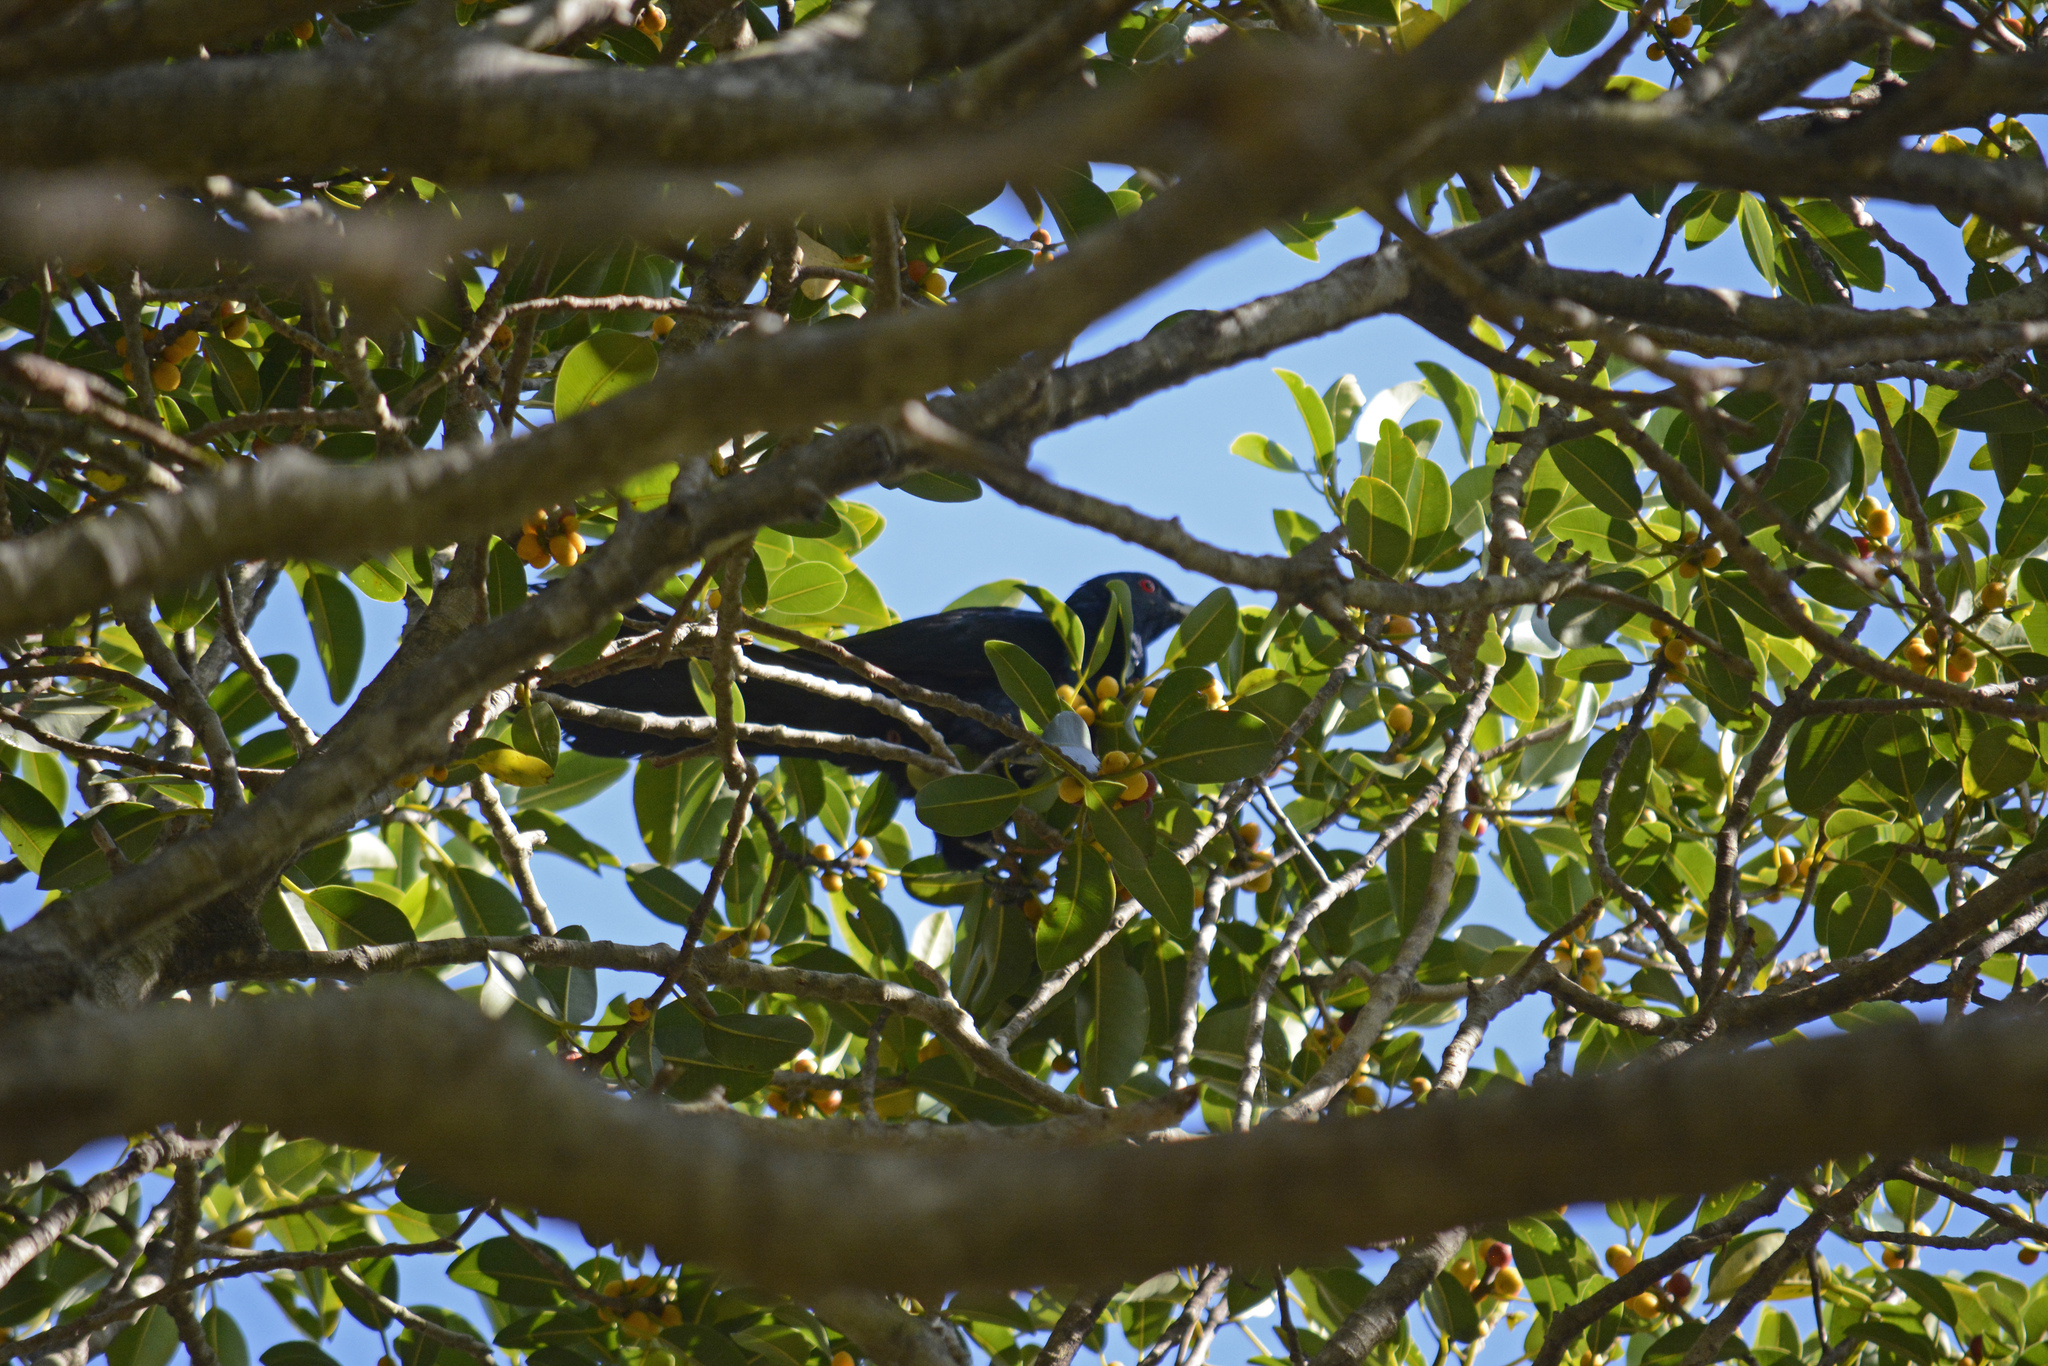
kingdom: Animalia
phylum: Chordata
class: Aves
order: Cuculiformes
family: Cuculidae
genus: Eudynamys
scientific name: Eudynamys orientalis
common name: Pacific koel
